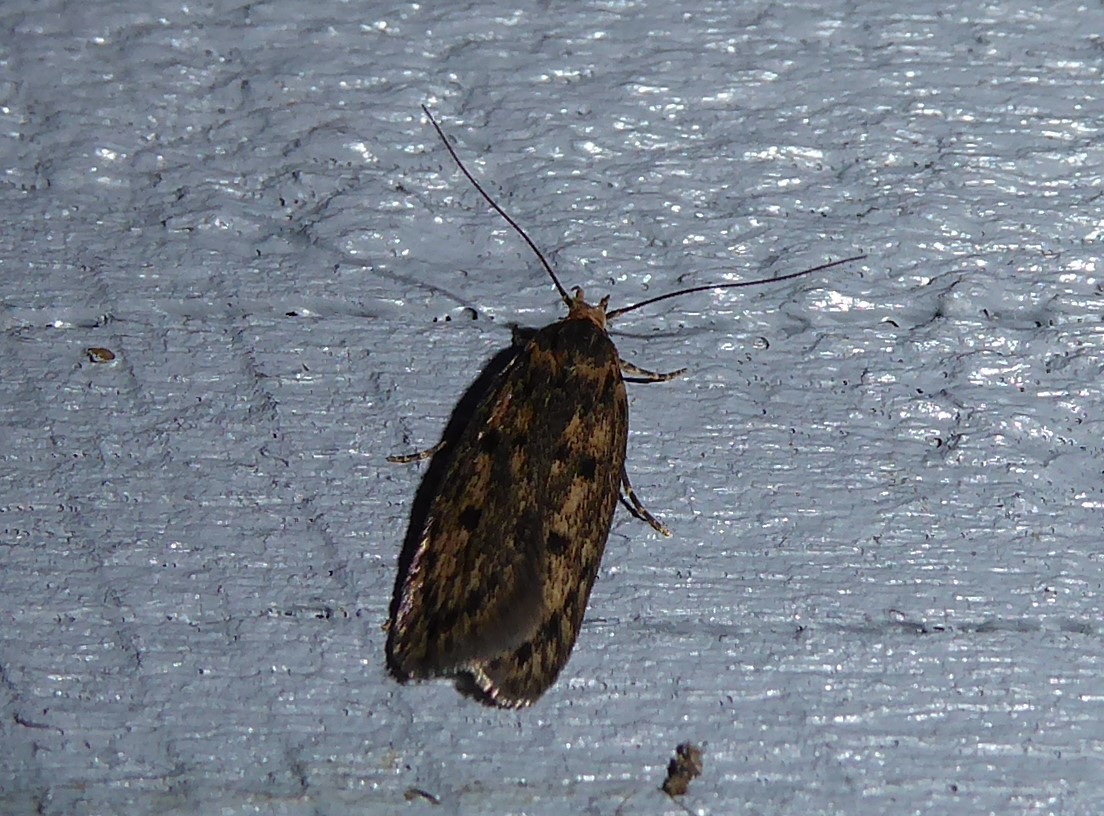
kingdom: Animalia
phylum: Arthropoda
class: Insecta
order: Lepidoptera
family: Oecophoridae
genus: Hofmannophila
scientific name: Hofmannophila pseudospretella
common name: Brown house moth
